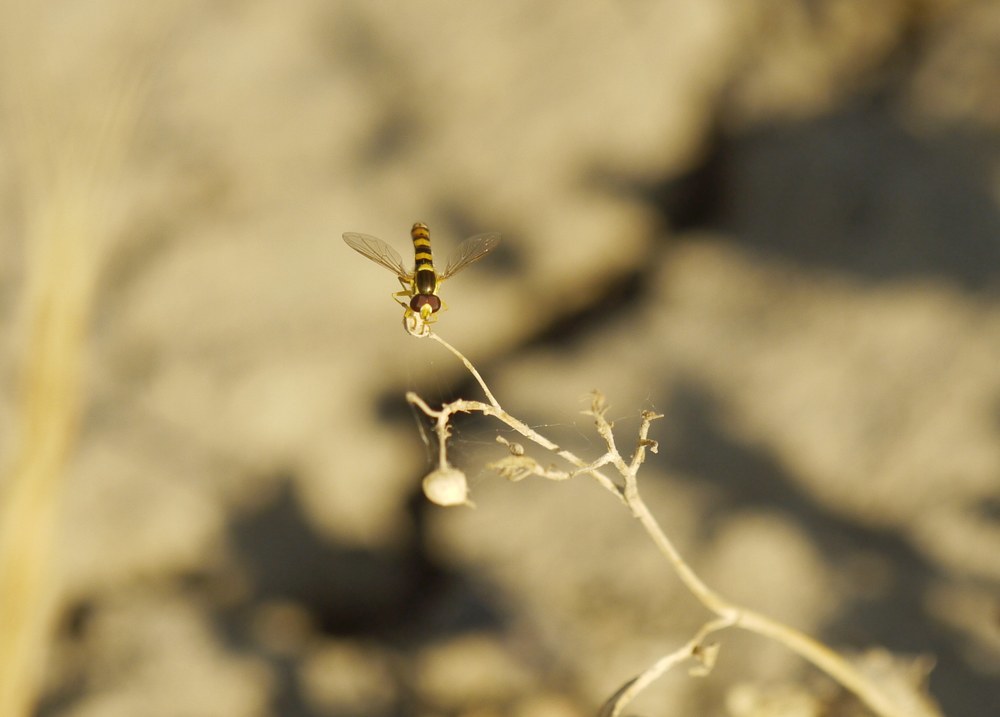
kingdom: Animalia
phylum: Arthropoda
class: Insecta
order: Diptera
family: Syrphidae
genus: Sphaerophoria
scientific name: Sphaerophoria
